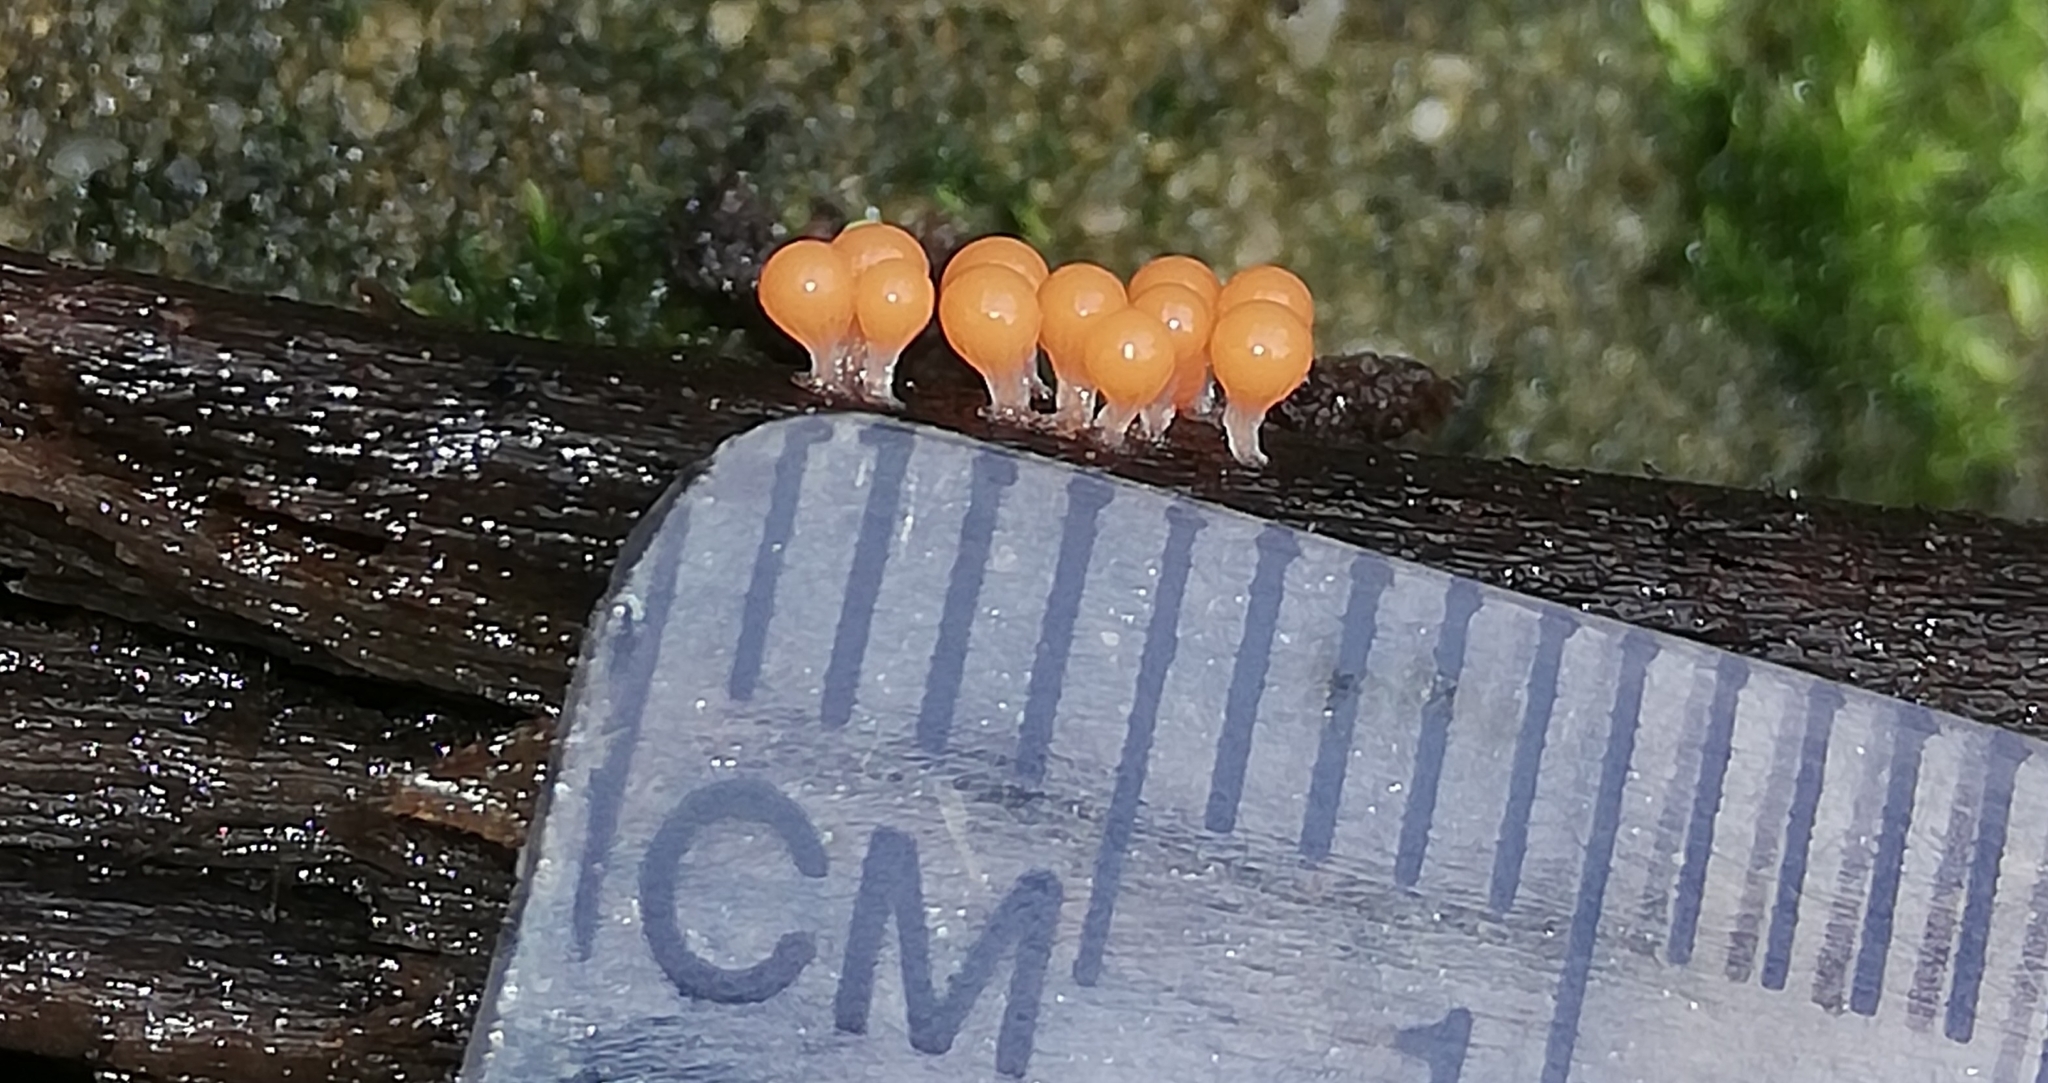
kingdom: Protozoa
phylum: Mycetozoa
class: Myxomycetes
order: Trichiales
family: Arcyriaceae
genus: Hemitrichia
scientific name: Hemitrichia decipiens
